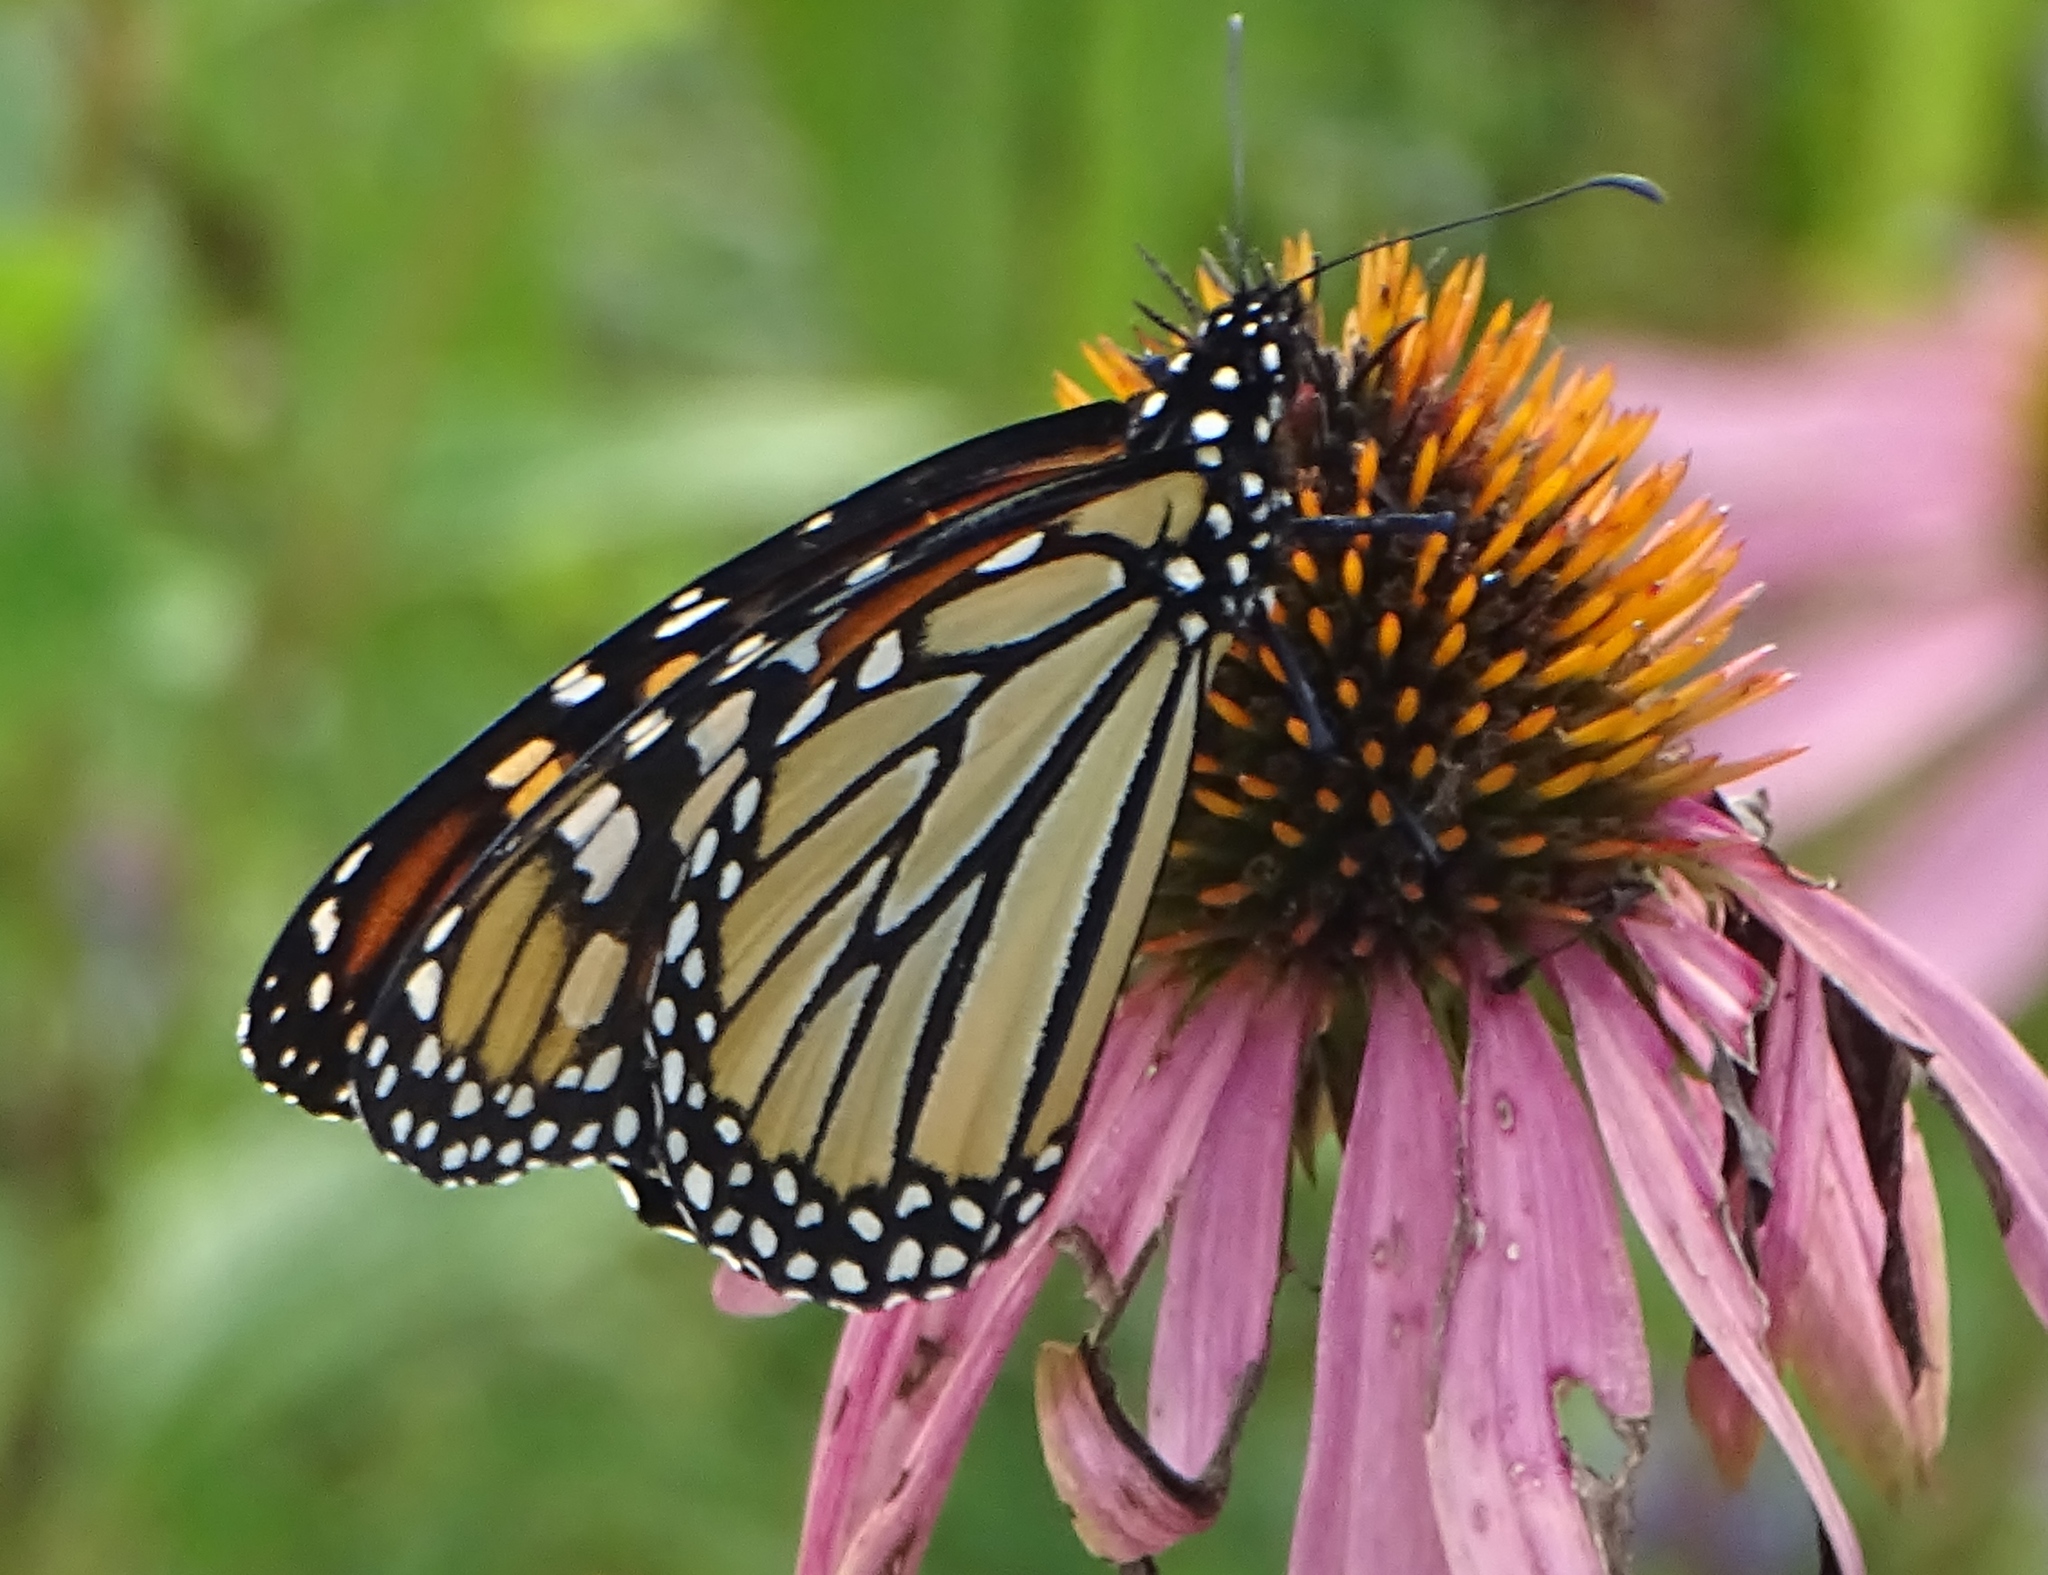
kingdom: Animalia
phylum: Arthropoda
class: Insecta
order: Lepidoptera
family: Nymphalidae
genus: Danaus
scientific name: Danaus plexippus
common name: Monarch
